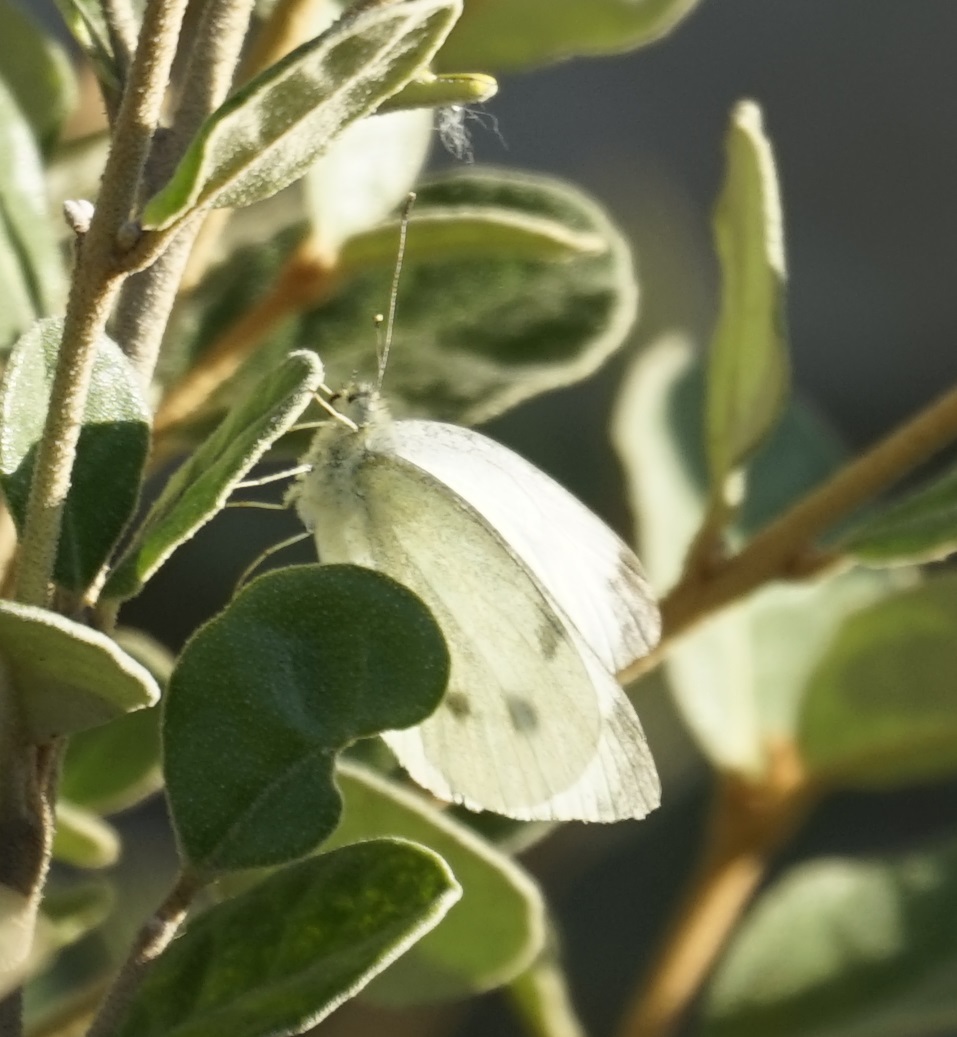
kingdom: Animalia
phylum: Arthropoda
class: Insecta
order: Lepidoptera
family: Pieridae
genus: Pieris
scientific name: Pieris rapae
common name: Small white
